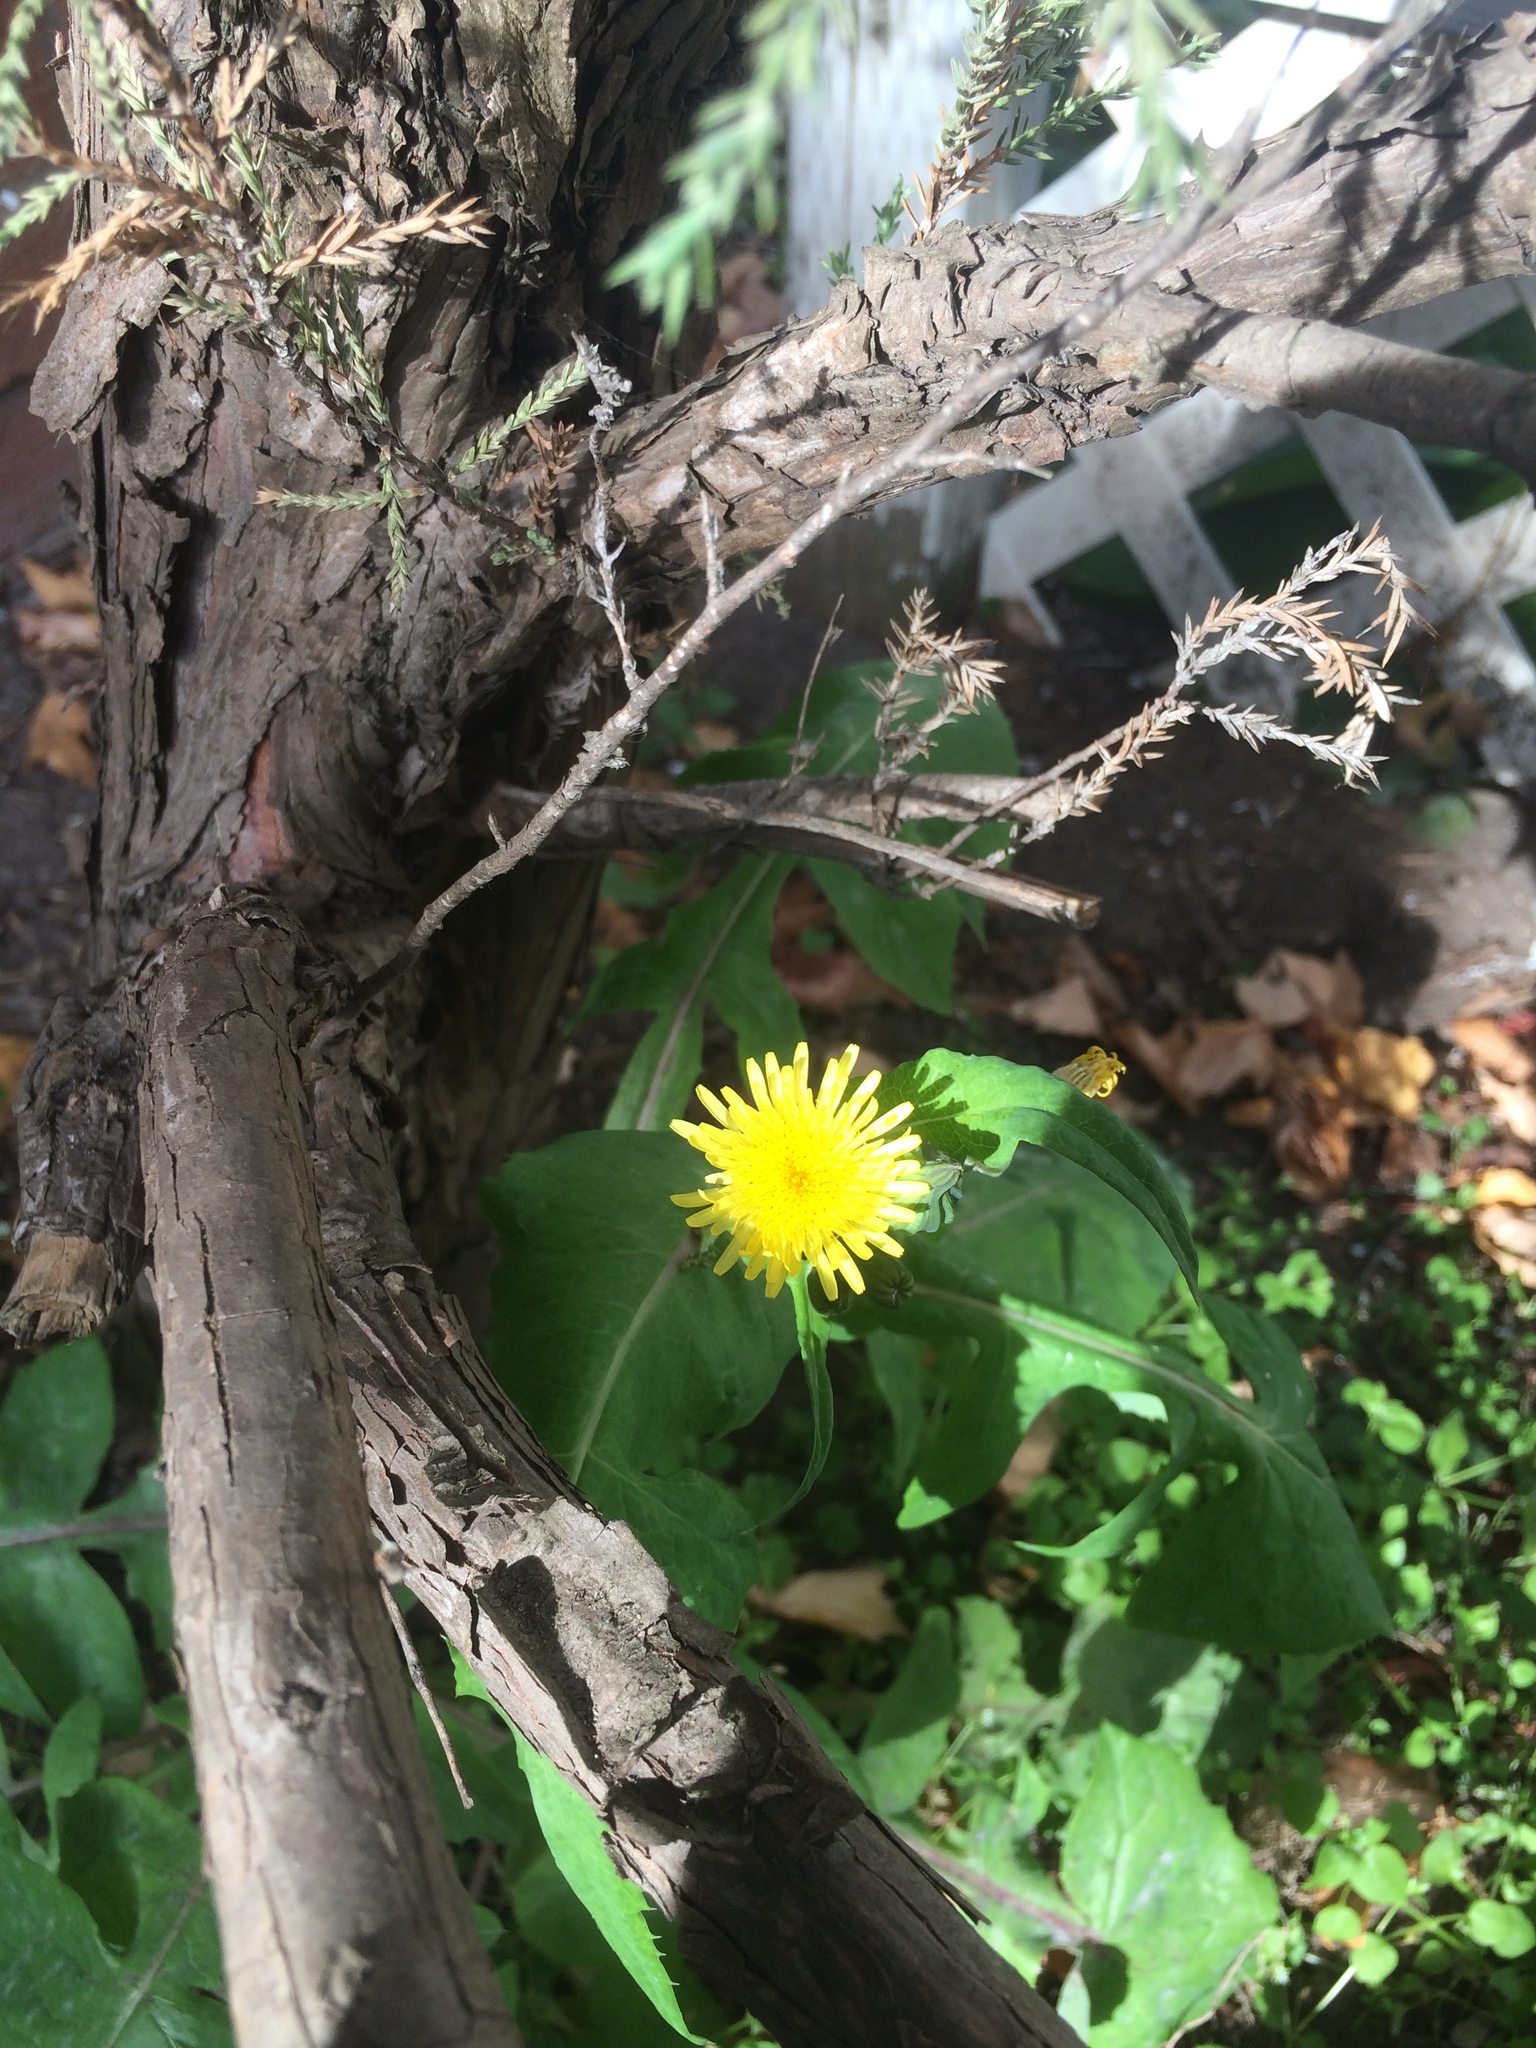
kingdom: Plantae
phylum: Tracheophyta
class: Magnoliopsida
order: Asterales
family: Asteraceae
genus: Sonchus
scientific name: Sonchus oleraceus
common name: Common sowthistle
